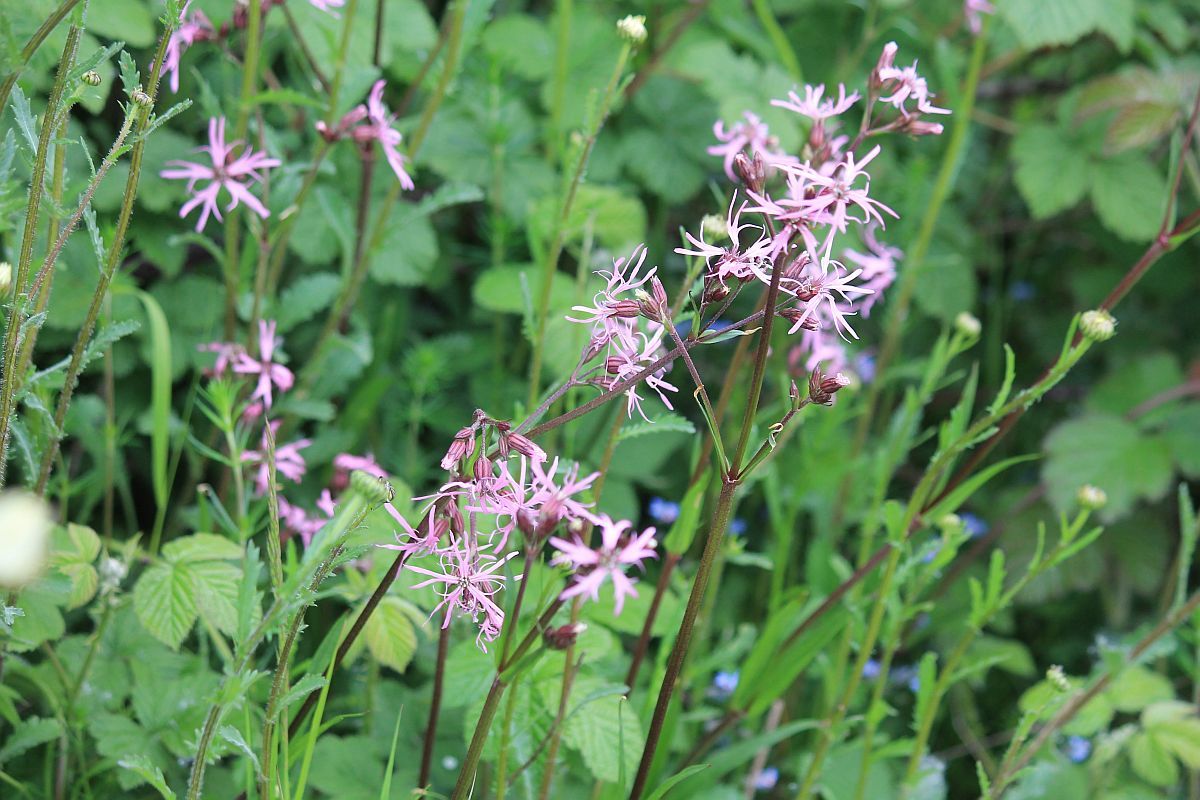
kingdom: Plantae
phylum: Tracheophyta
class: Magnoliopsida
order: Caryophyllales
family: Caryophyllaceae
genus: Silene
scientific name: Silene flos-cuculi
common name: Ragged-robin
